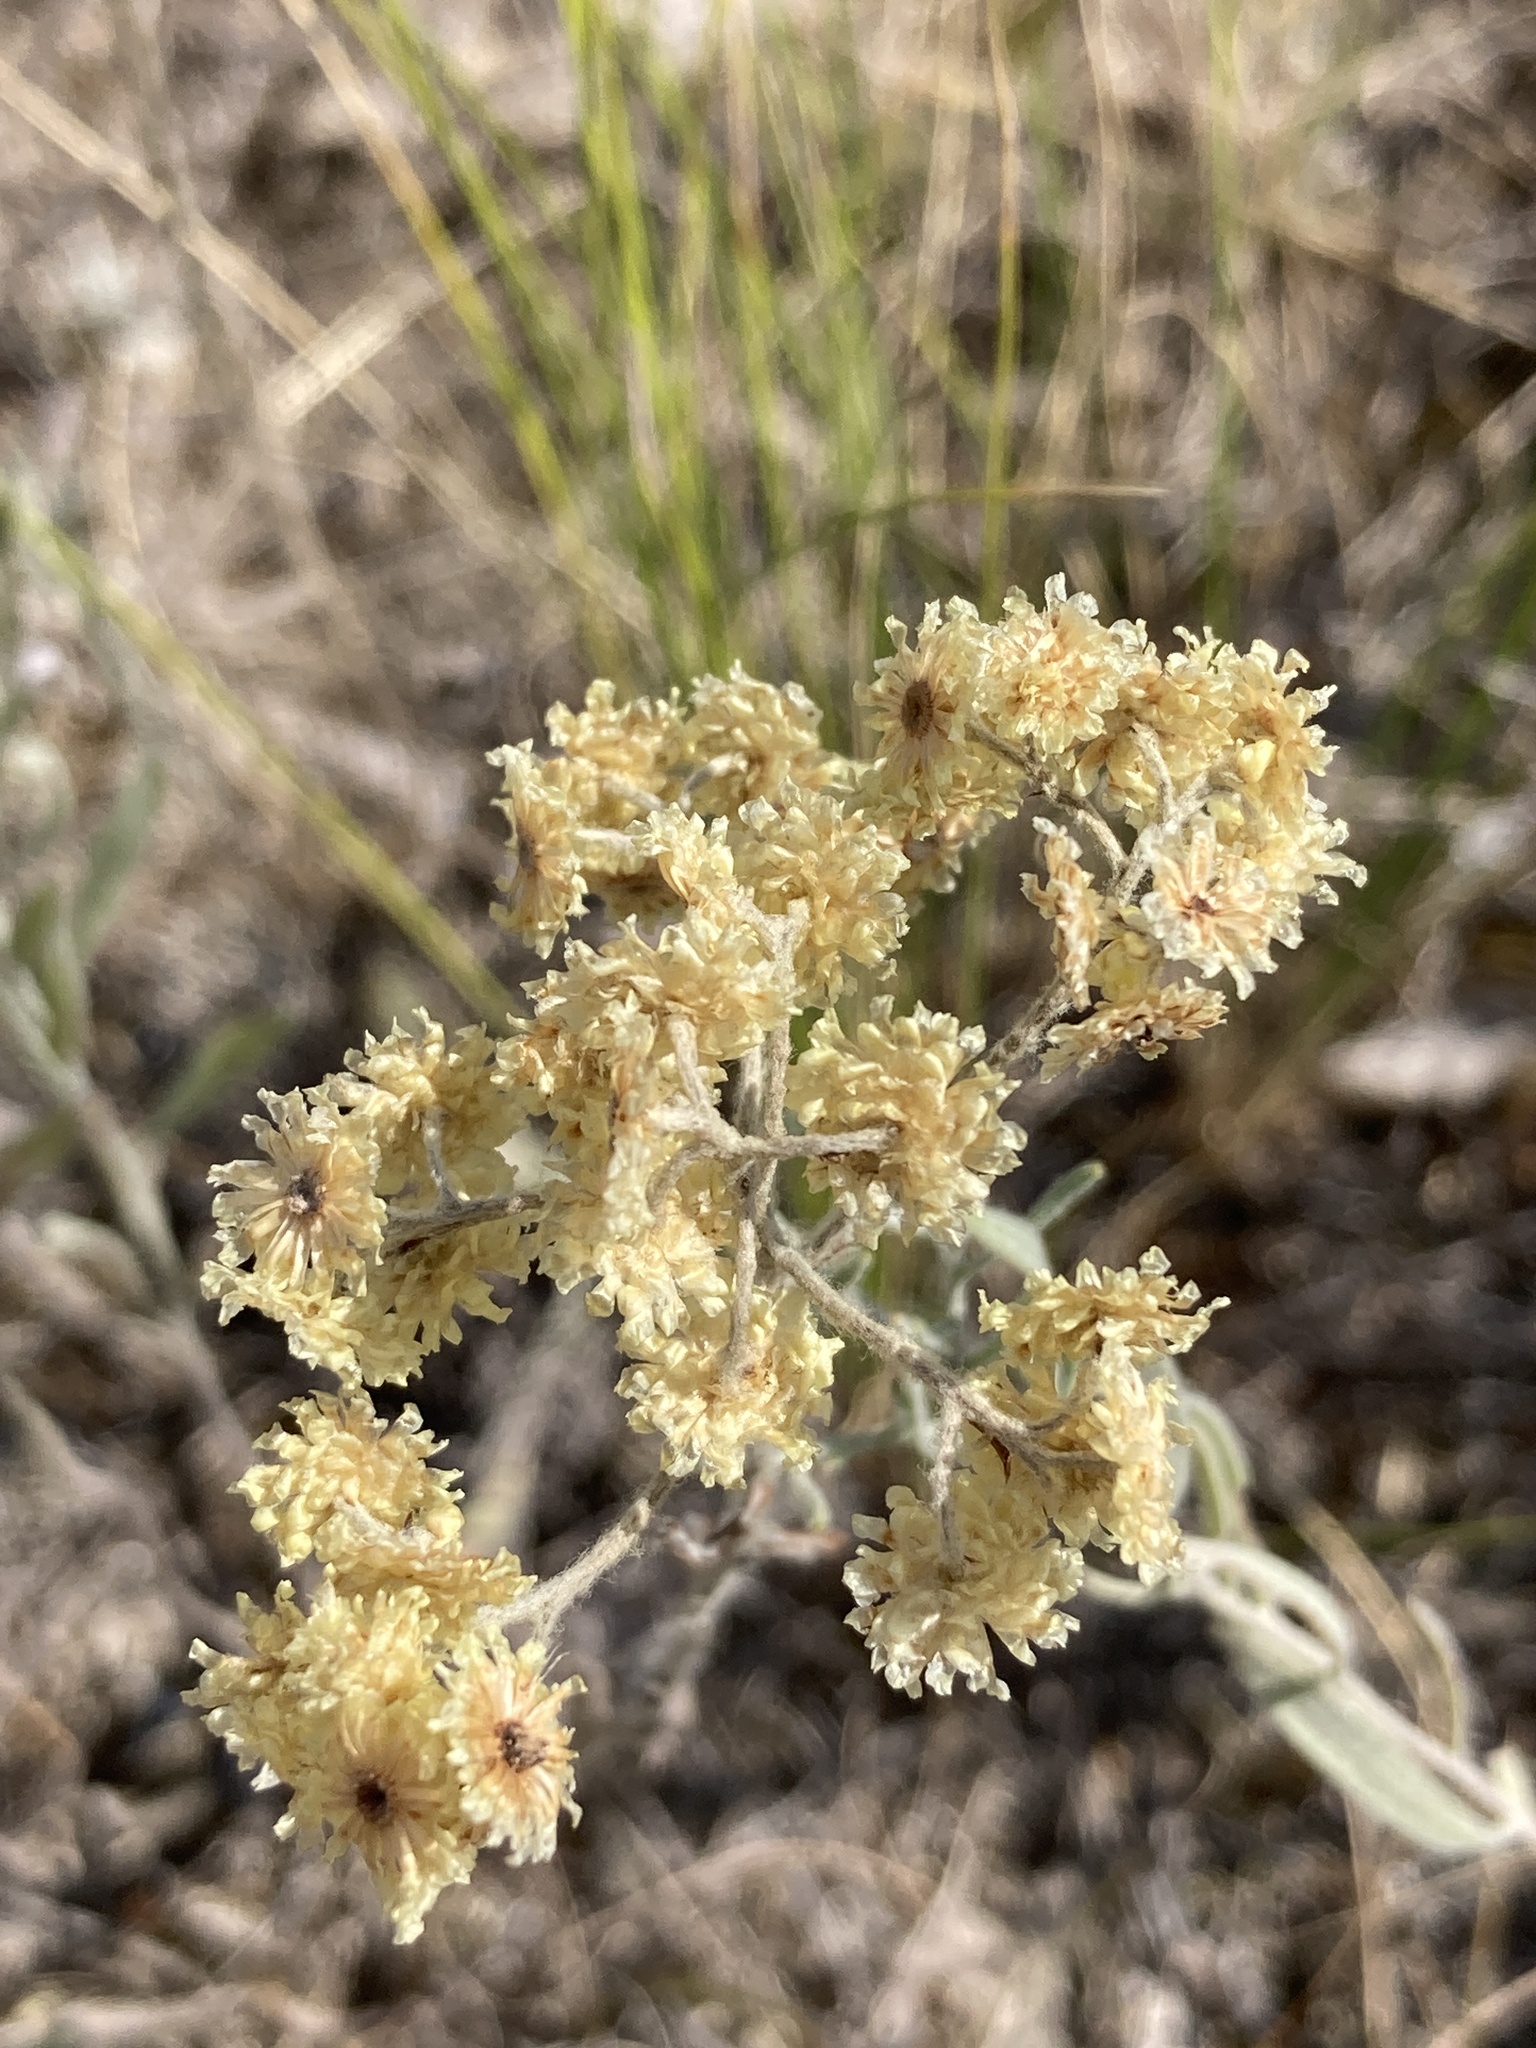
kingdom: Plantae
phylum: Tracheophyta
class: Magnoliopsida
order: Asterales
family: Asteraceae
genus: Helichrysum
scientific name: Helichrysum arenarium
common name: Strawflower
